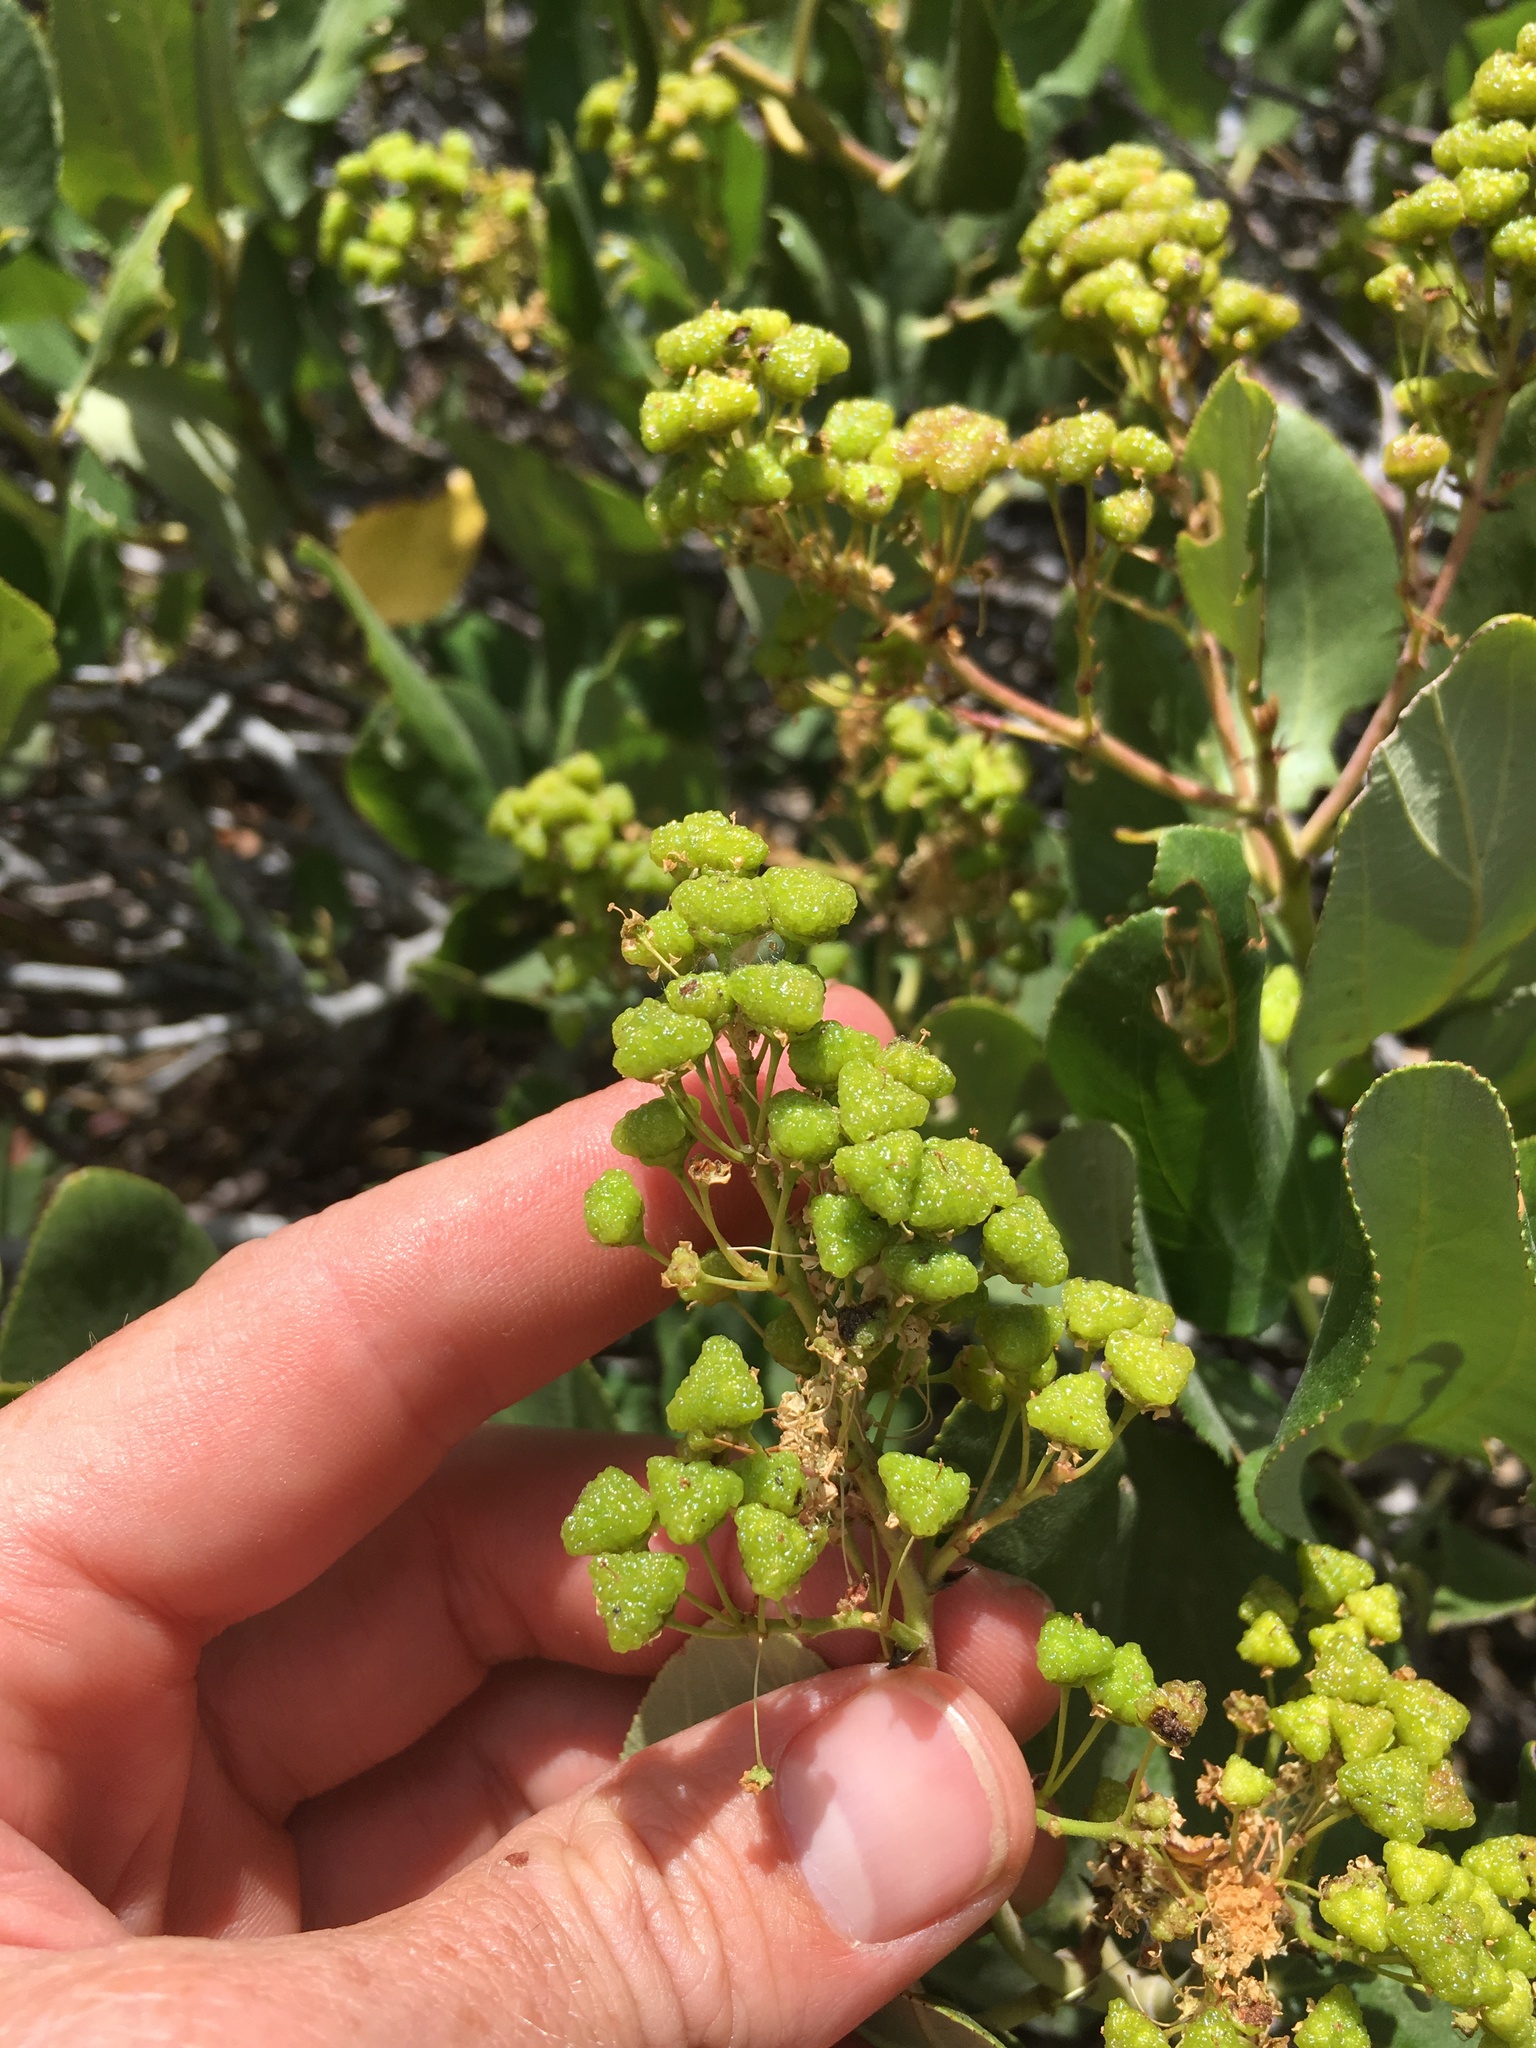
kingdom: Plantae
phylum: Tracheophyta
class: Magnoliopsida
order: Rosales
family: Rhamnaceae
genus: Ceanothus
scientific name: Ceanothus velutinus
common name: Snowbrush
